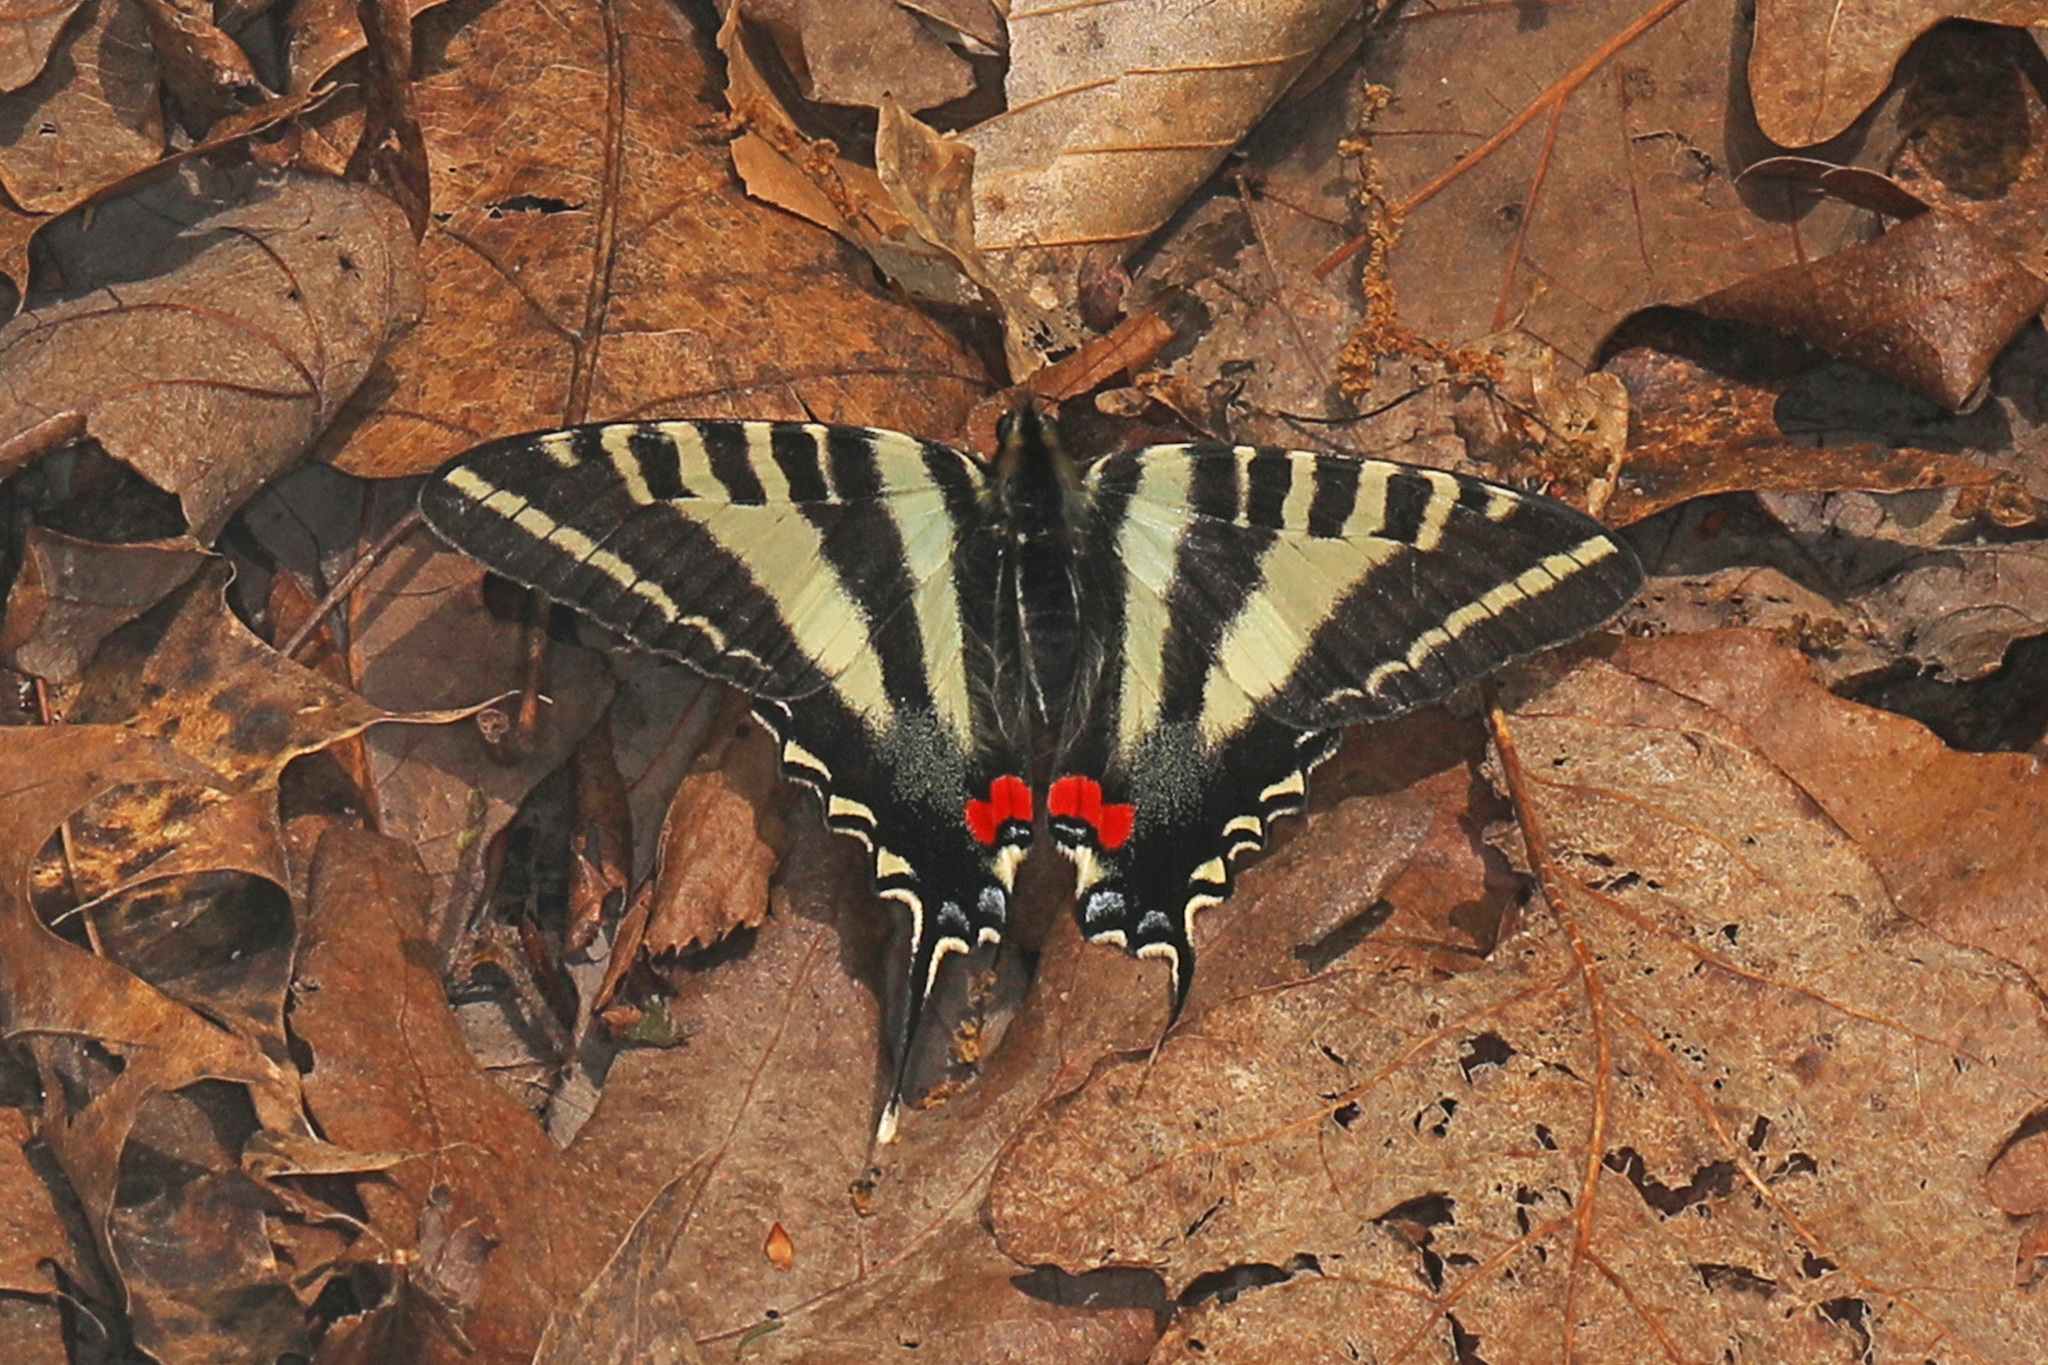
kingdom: Animalia
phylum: Arthropoda
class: Insecta
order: Lepidoptera
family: Papilionidae
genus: Protographium
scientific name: Protographium marcellus
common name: Zebra swallowtail
